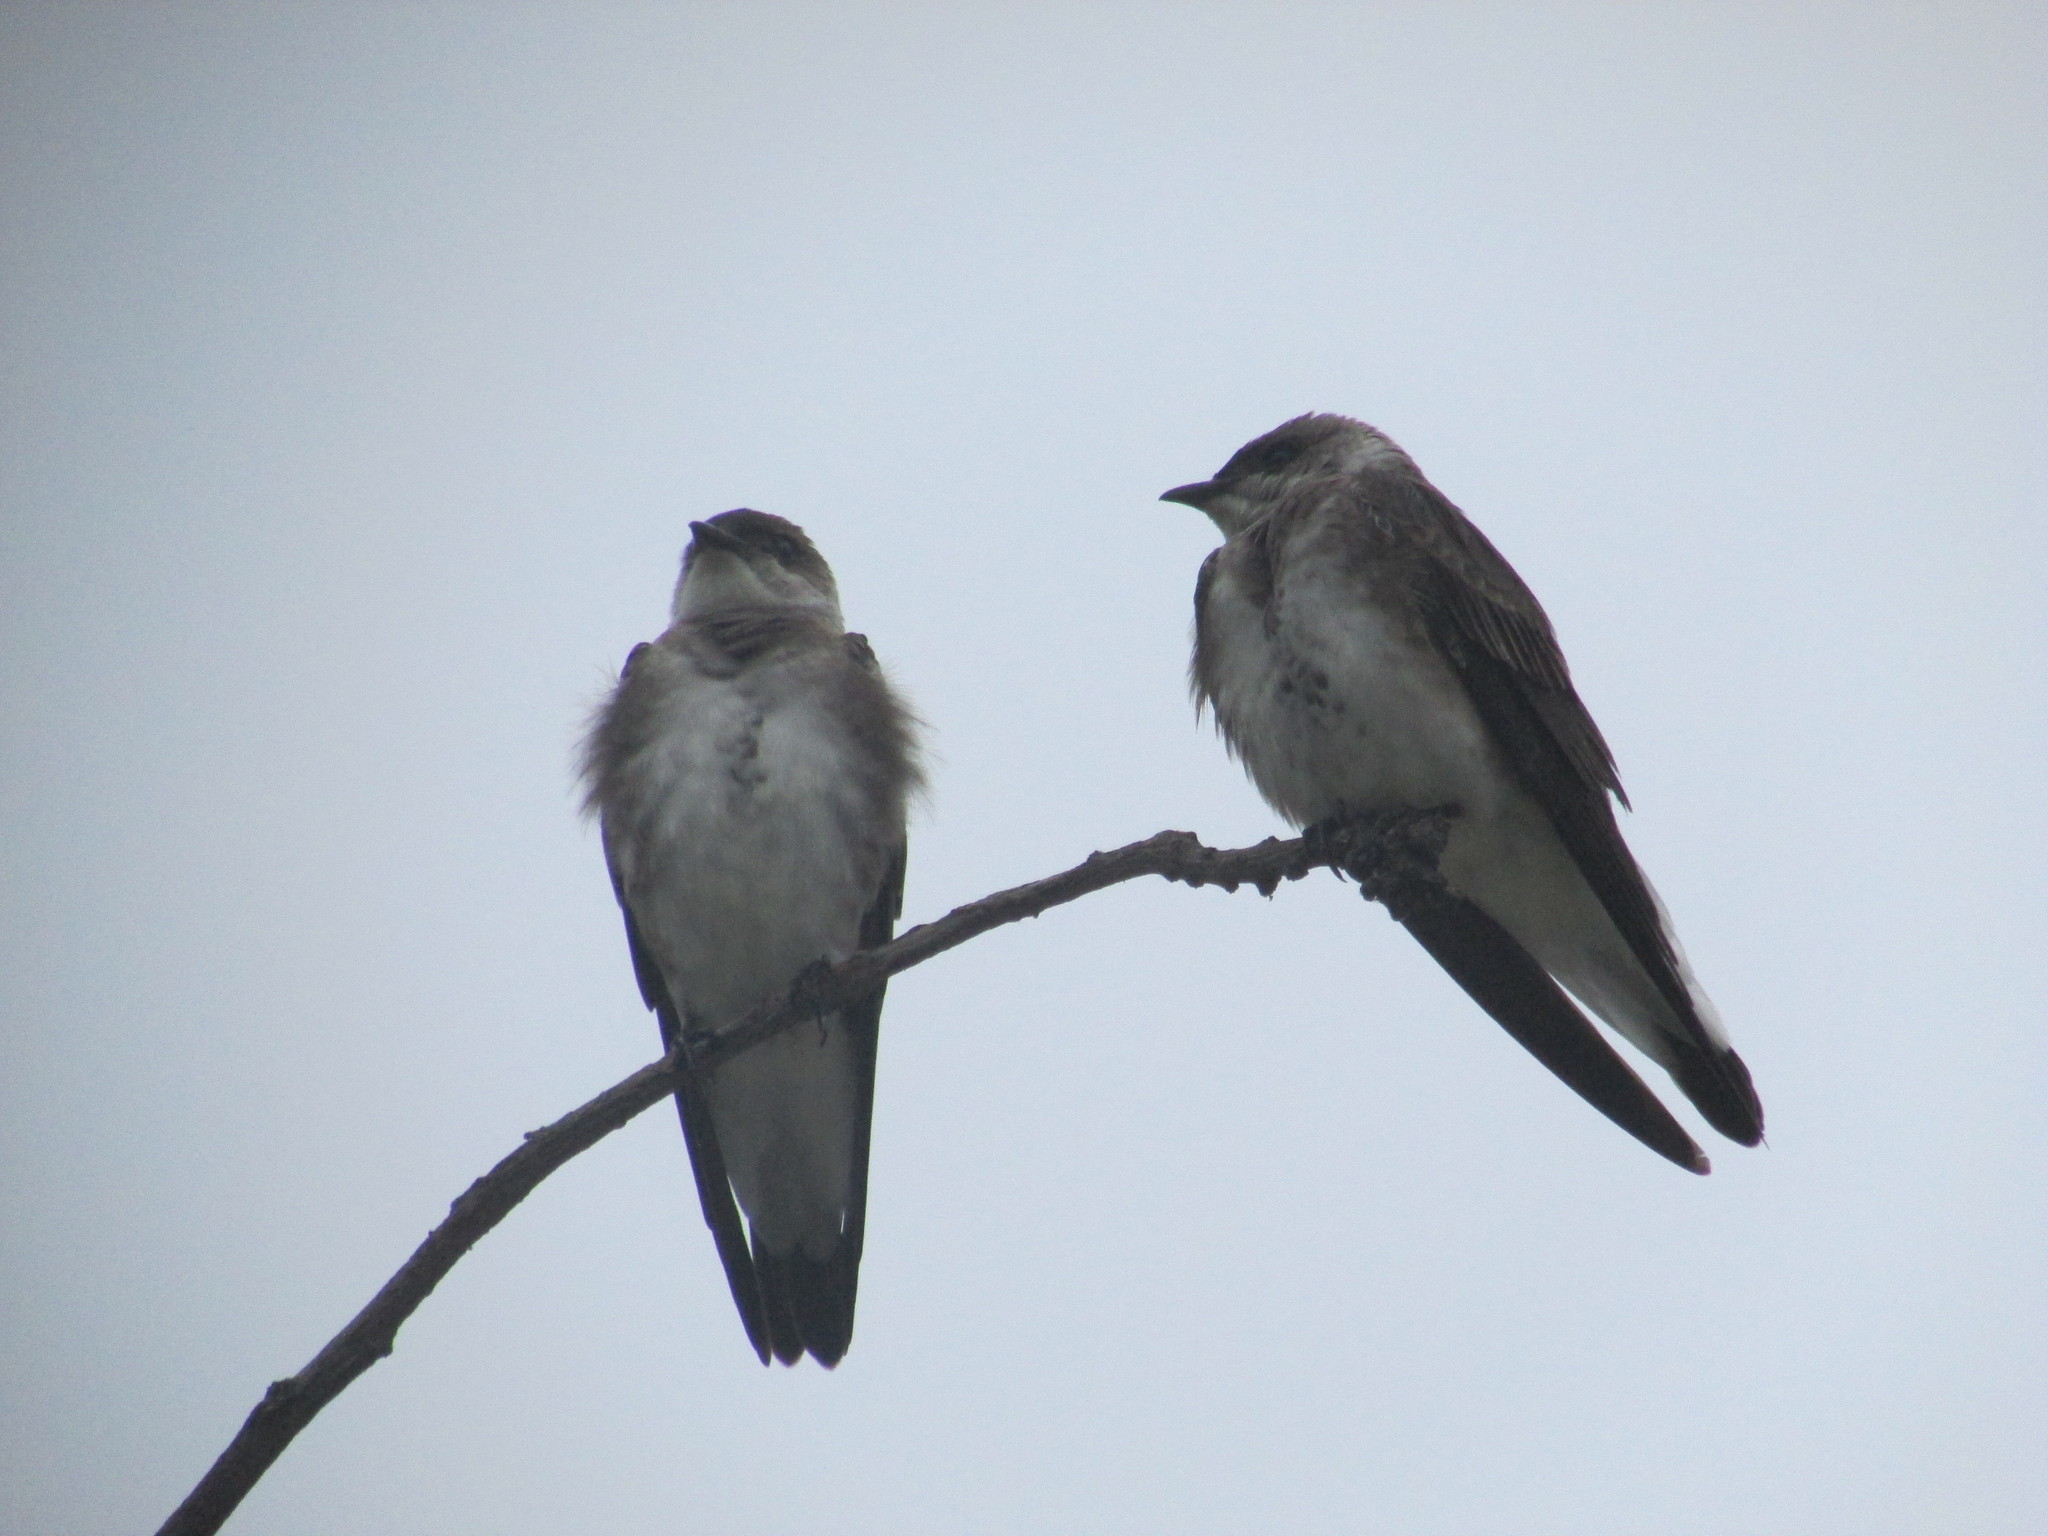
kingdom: Animalia
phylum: Chordata
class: Aves
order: Passeriformes
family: Hirundinidae
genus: Progne
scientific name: Progne tapera
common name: Brown-chested martin
